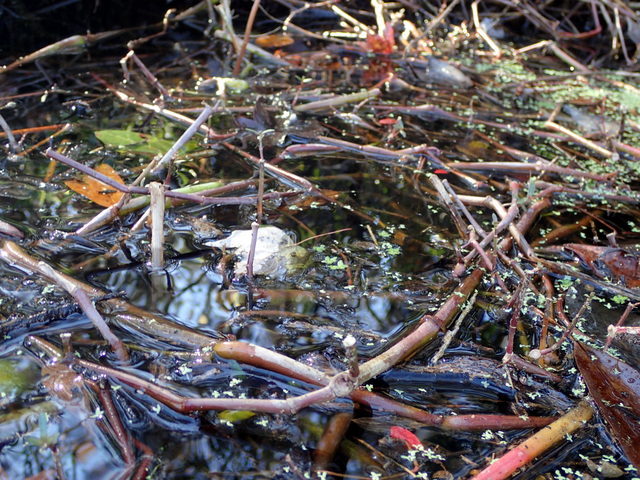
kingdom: Plantae
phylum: Tracheophyta
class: Magnoliopsida
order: Caryophyllales
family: Amaranthaceae
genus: Alternanthera
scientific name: Alternanthera philoxeroides
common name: Alligatorweed
